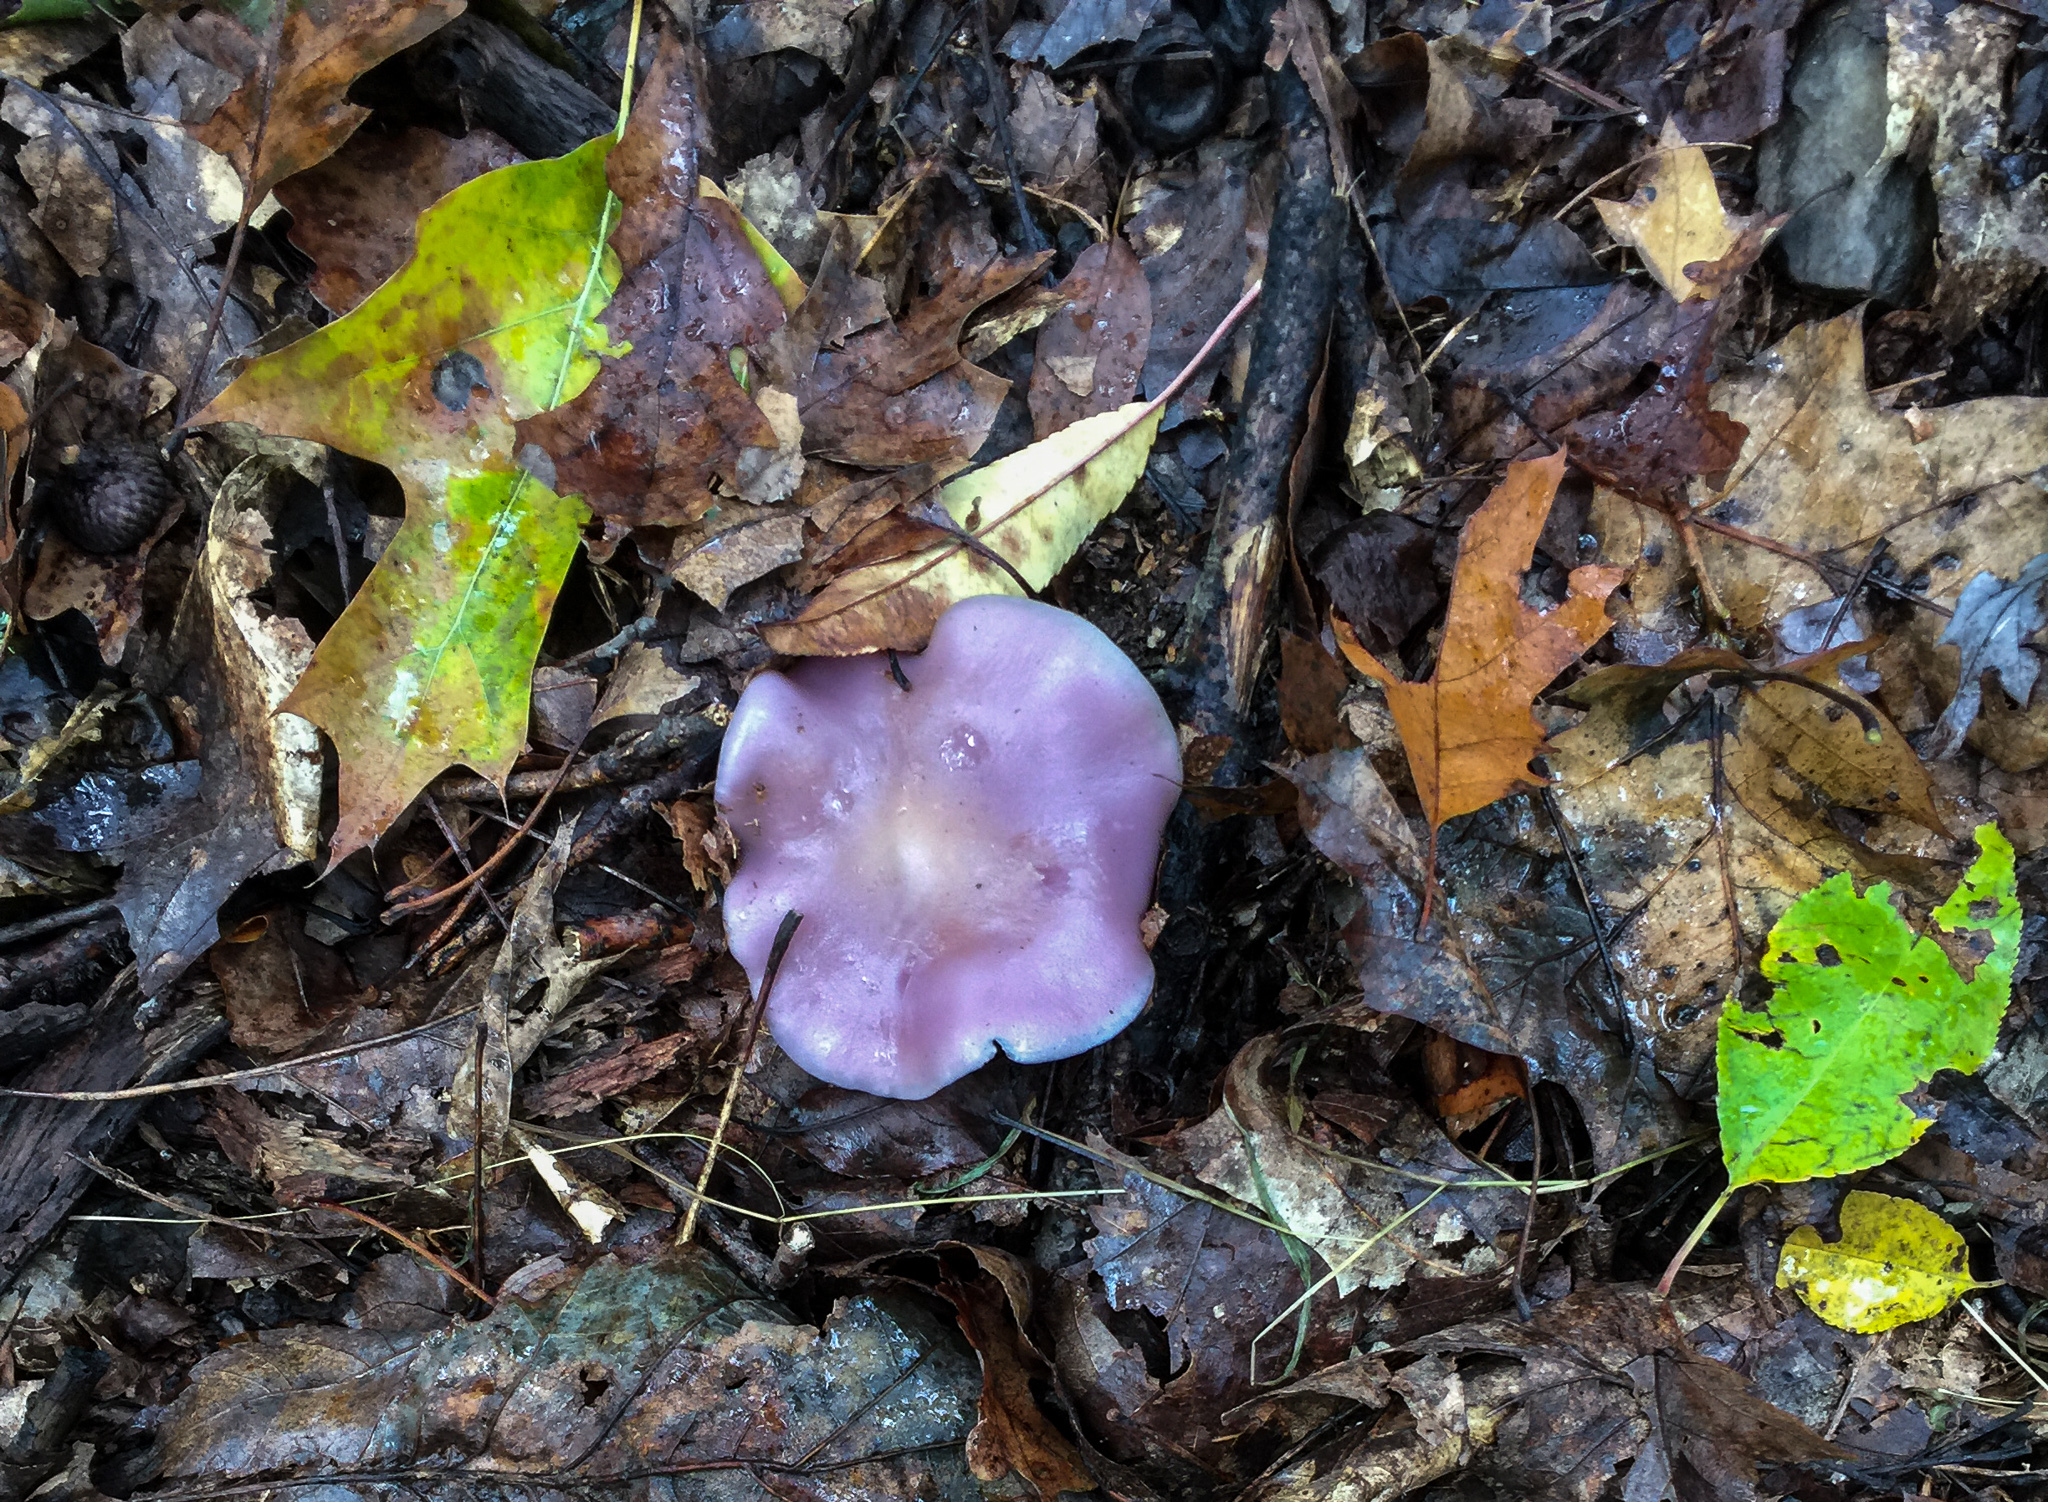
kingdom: Fungi
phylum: Basidiomycota
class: Agaricomycetes
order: Agaricales
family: Tricholomataceae
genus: Collybia
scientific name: Collybia
